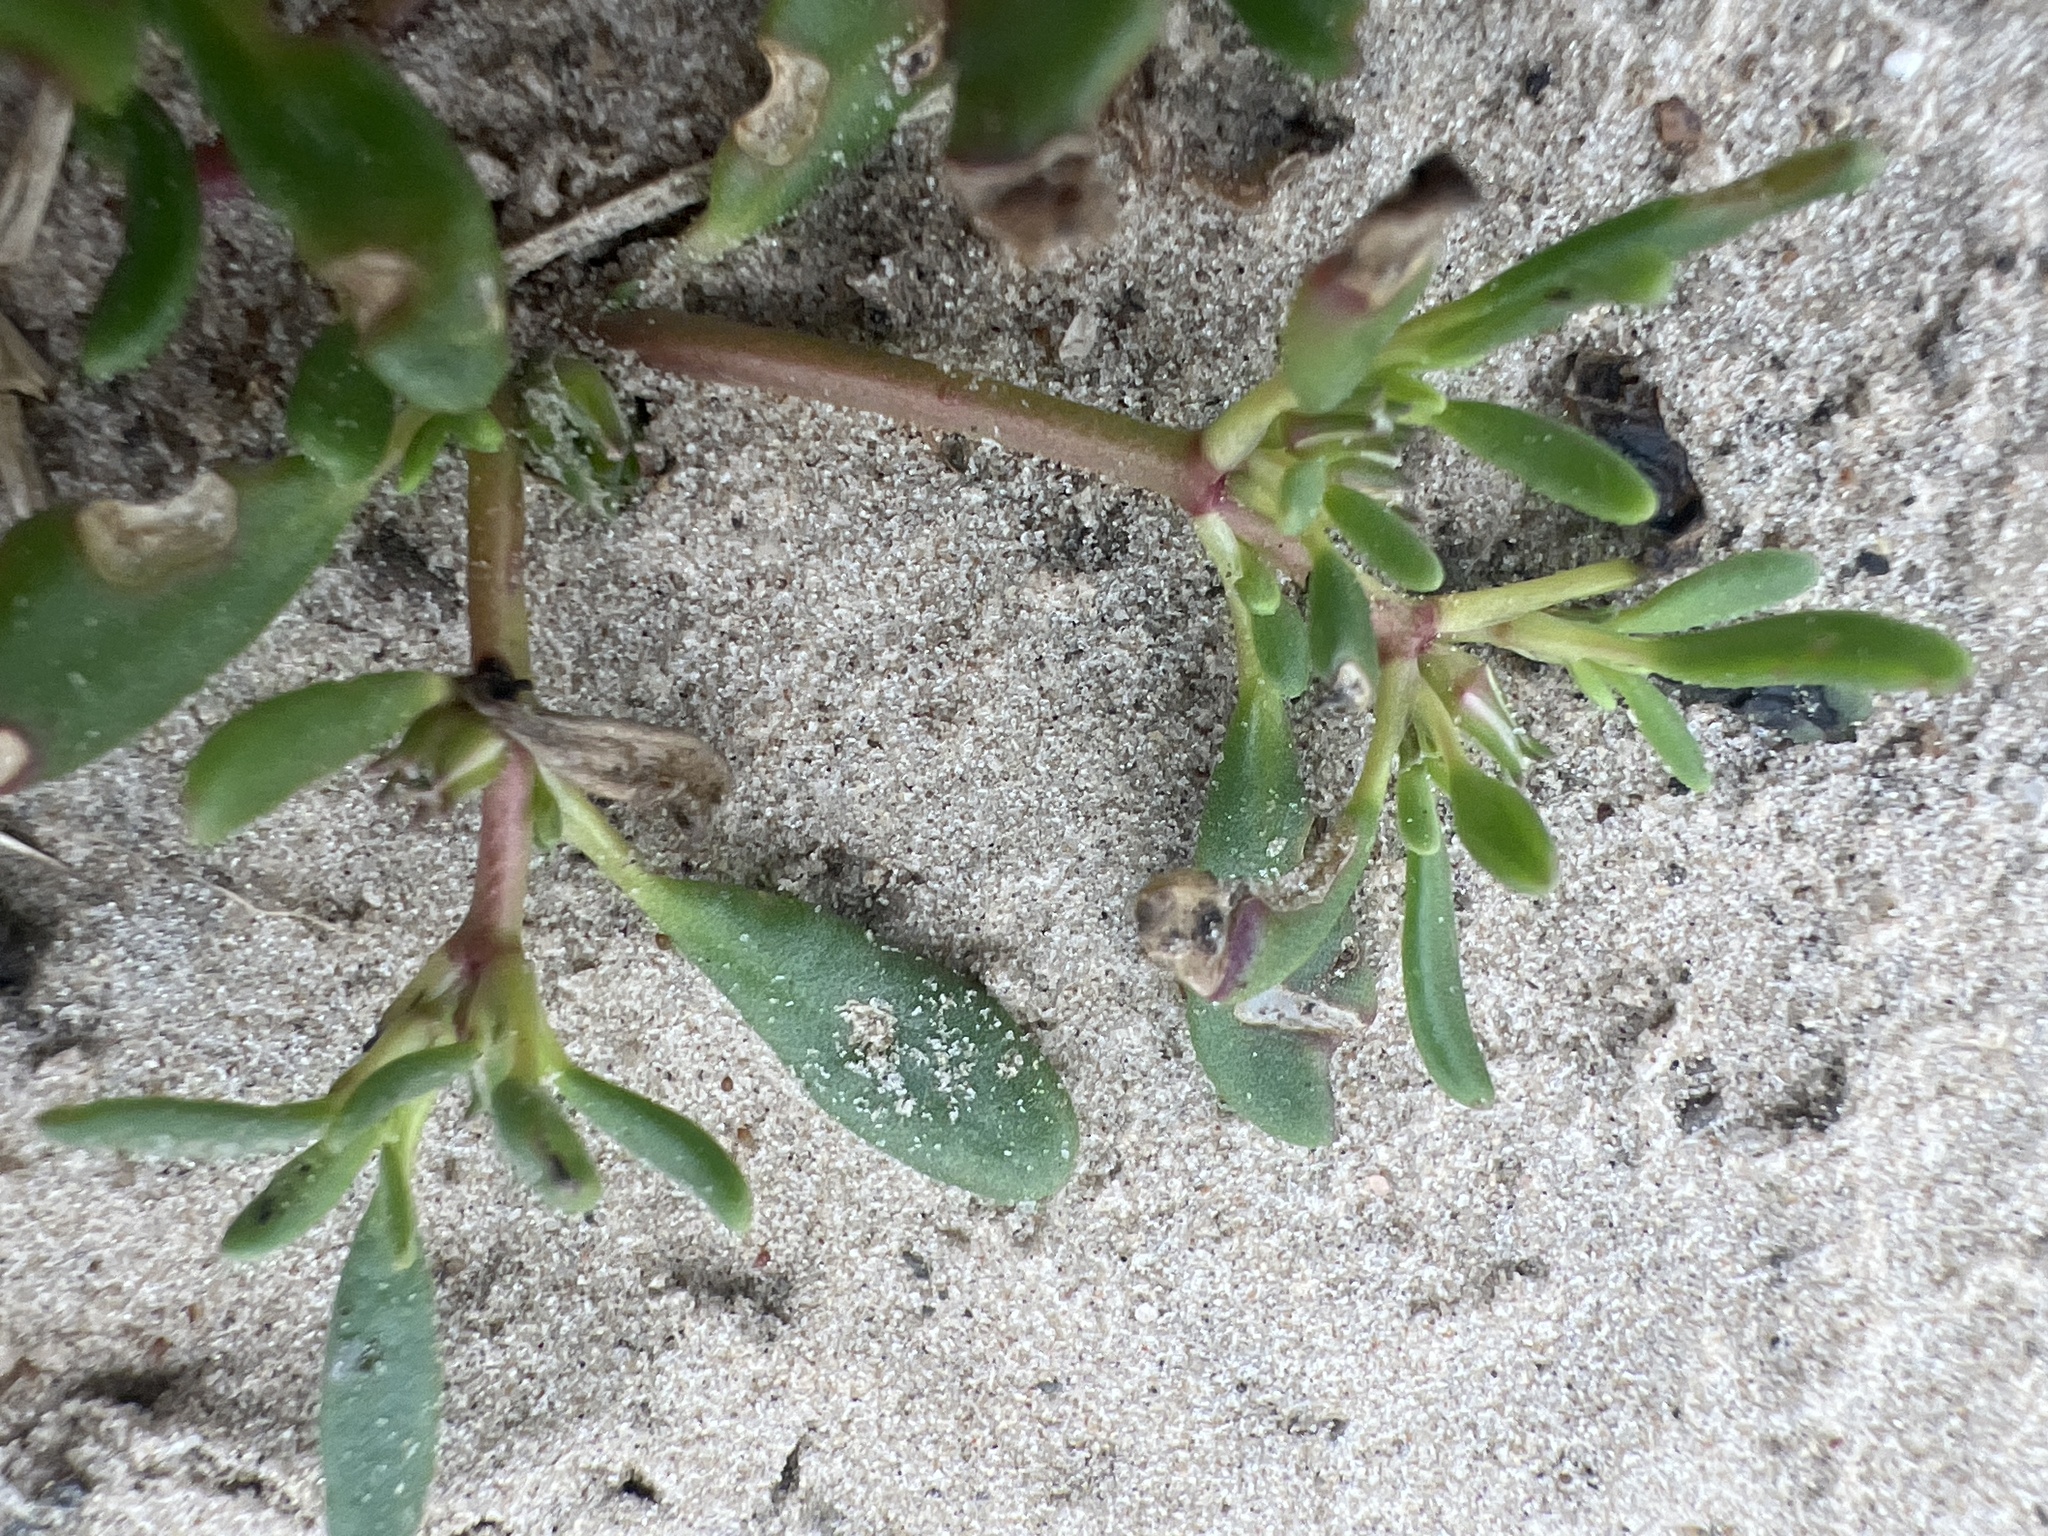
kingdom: Plantae
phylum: Tracheophyta
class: Magnoliopsida
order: Caryophyllales
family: Aizoaceae
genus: Sesuvium
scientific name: Sesuvium portulacastrum
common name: Sea-purslane
